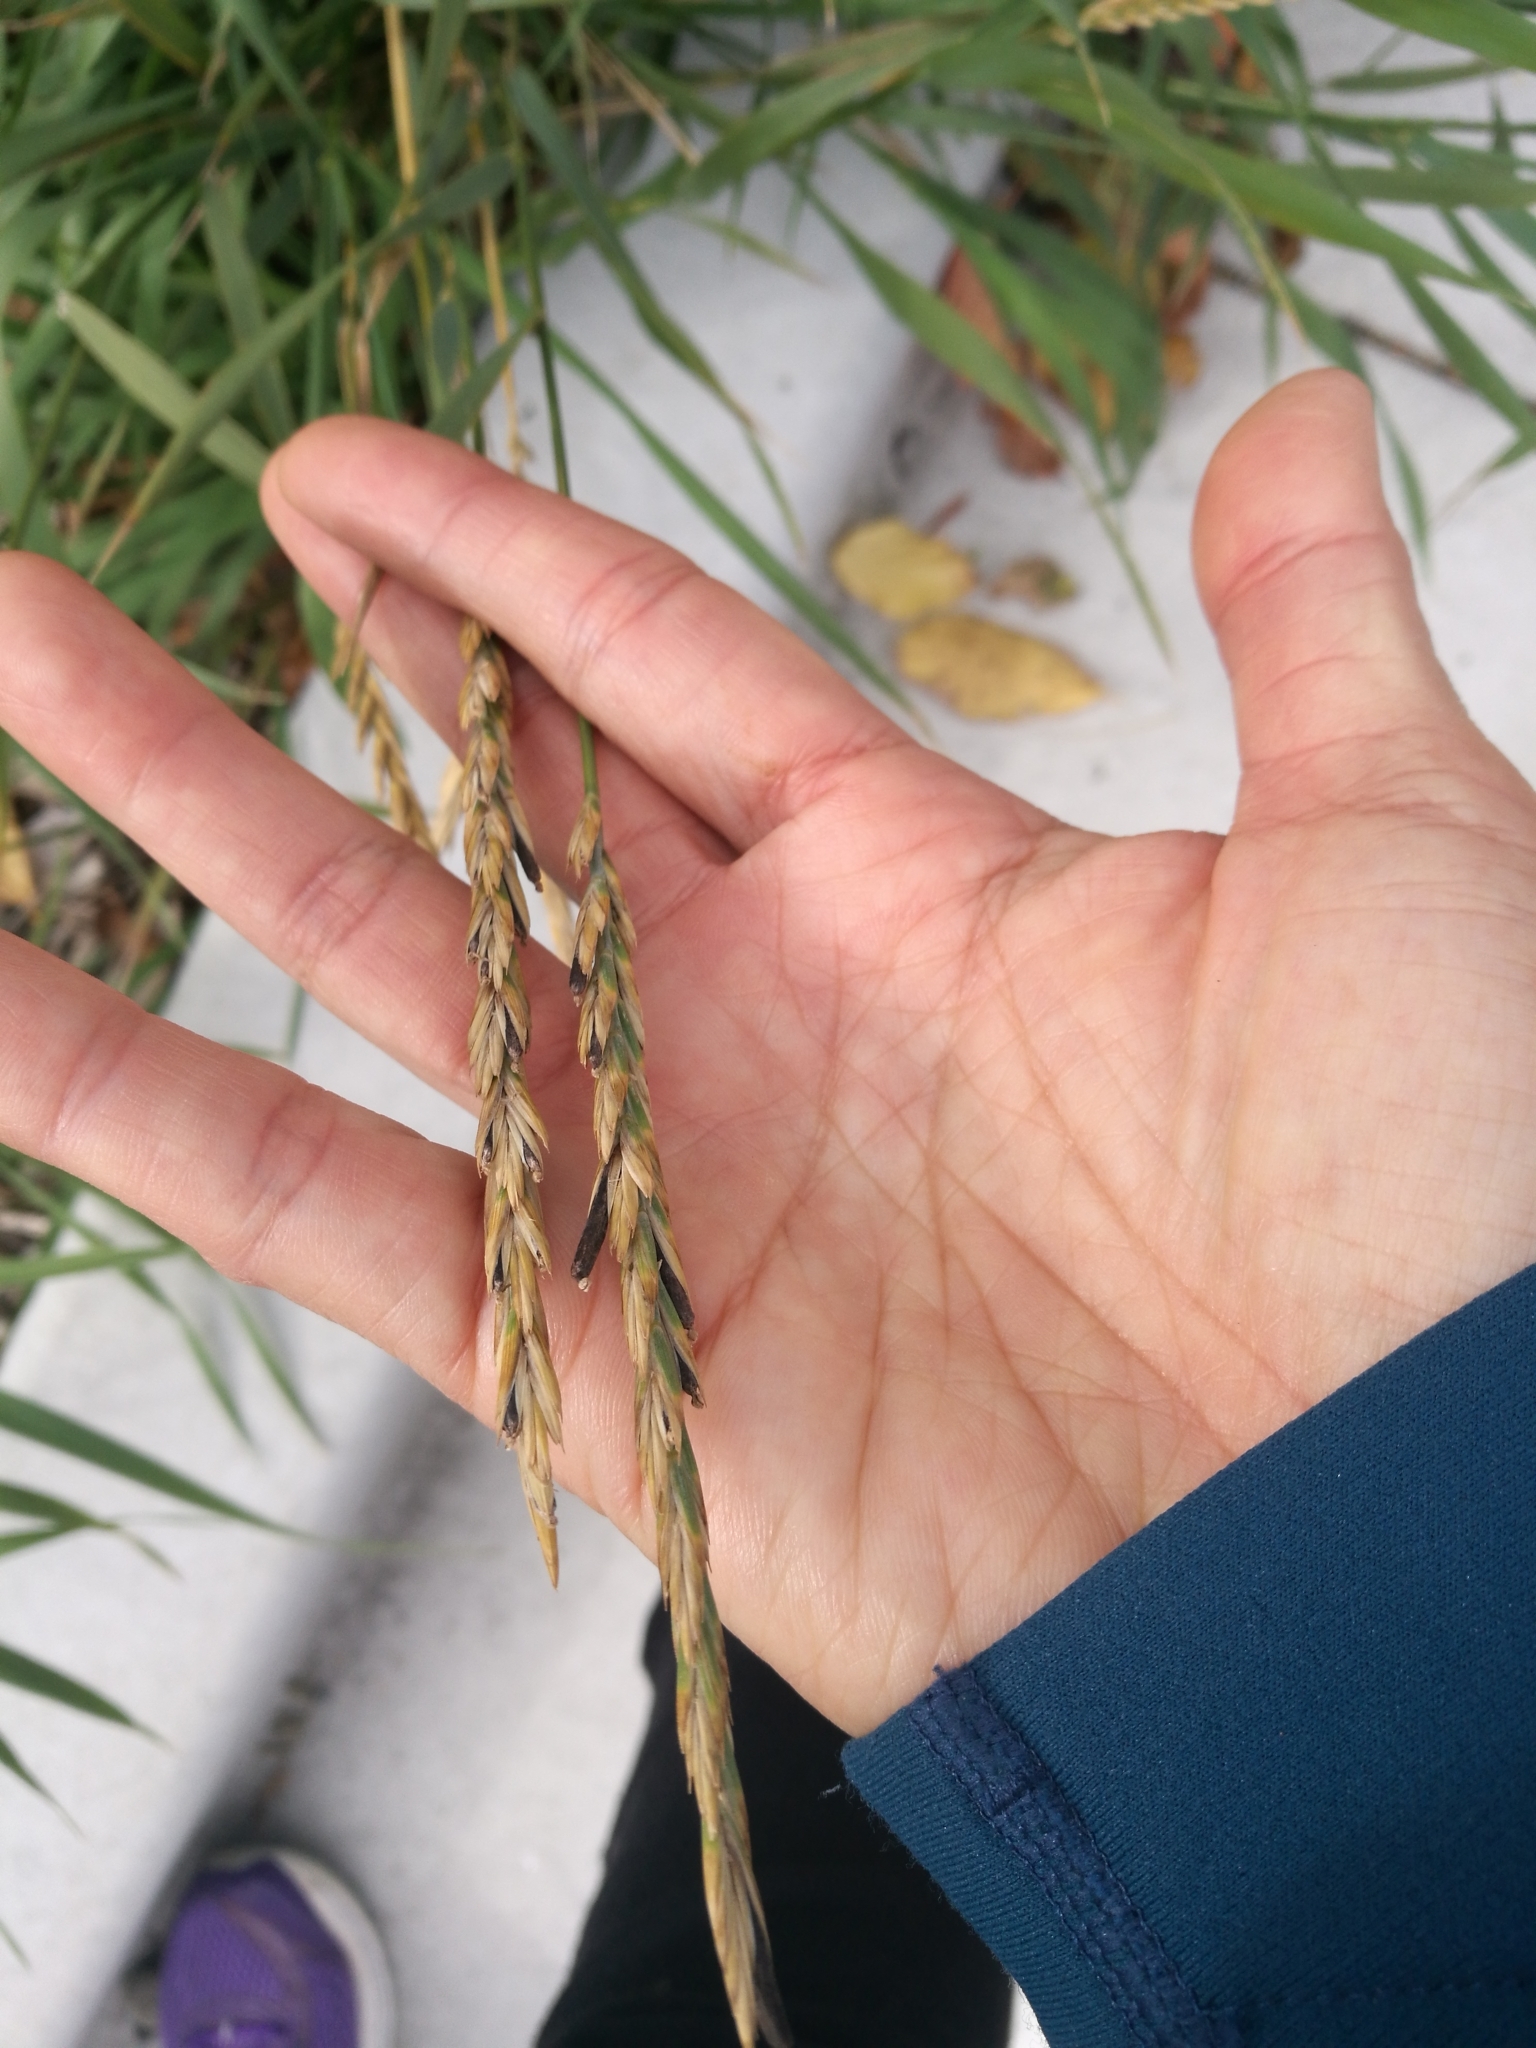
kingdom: Plantae
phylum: Tracheophyta
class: Liliopsida
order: Poales
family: Poaceae
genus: Elymus
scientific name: Elymus repens
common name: Quackgrass
